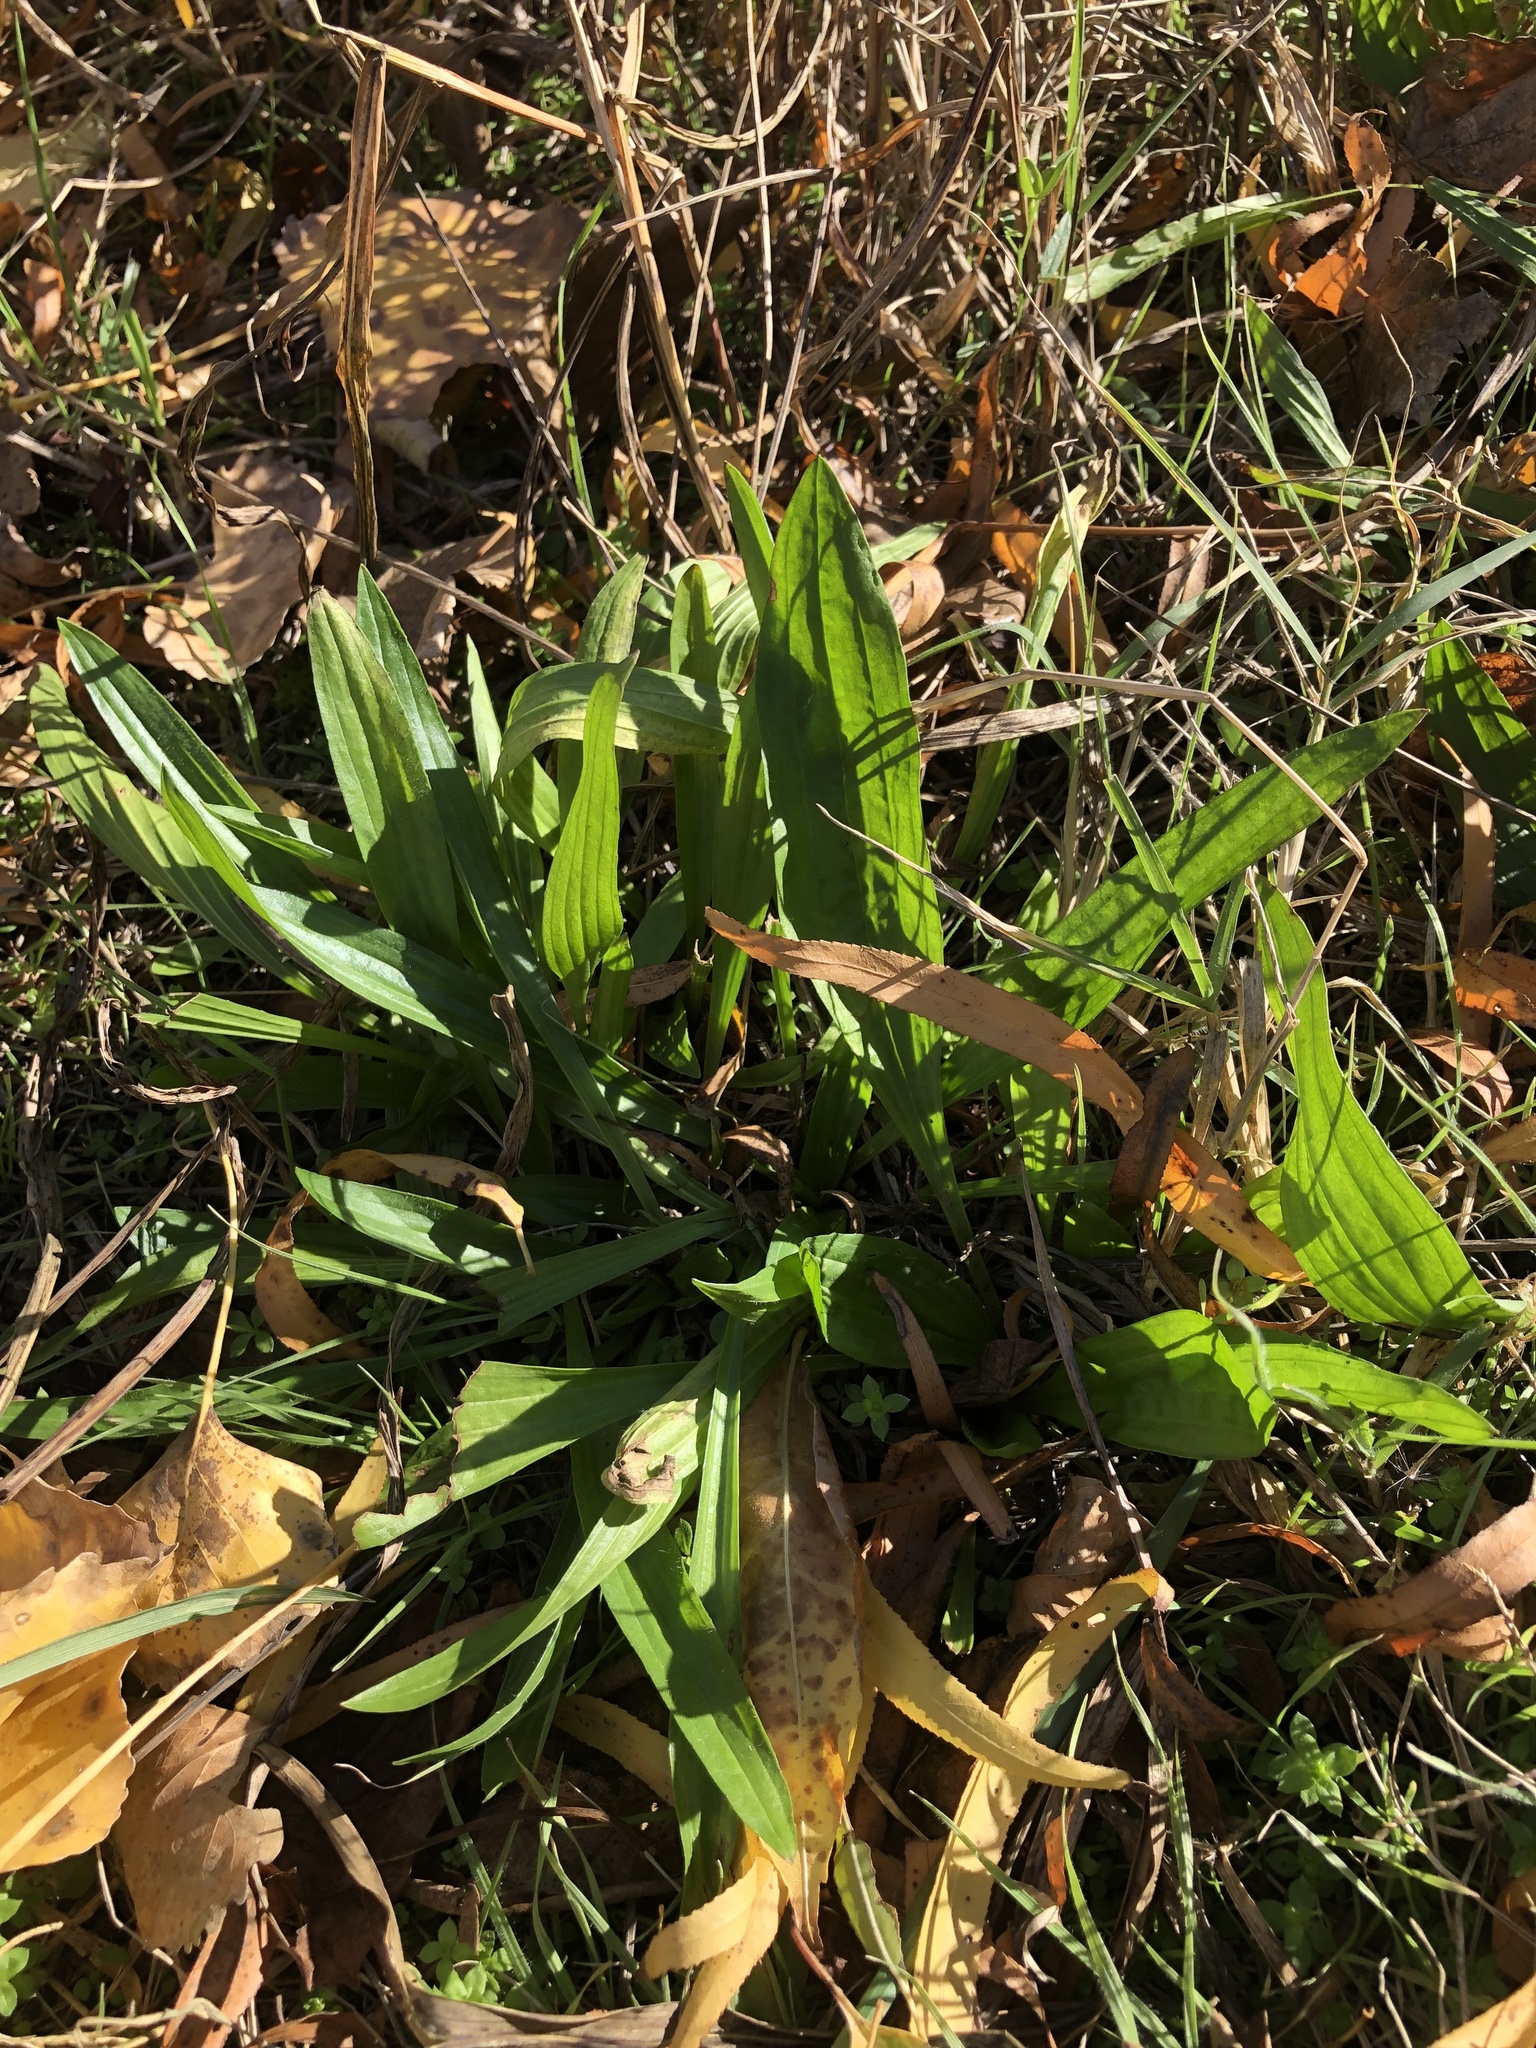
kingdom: Plantae
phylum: Tracheophyta
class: Magnoliopsida
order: Lamiales
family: Plantaginaceae
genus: Plantago
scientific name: Plantago lanceolata
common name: Ribwort plantain
